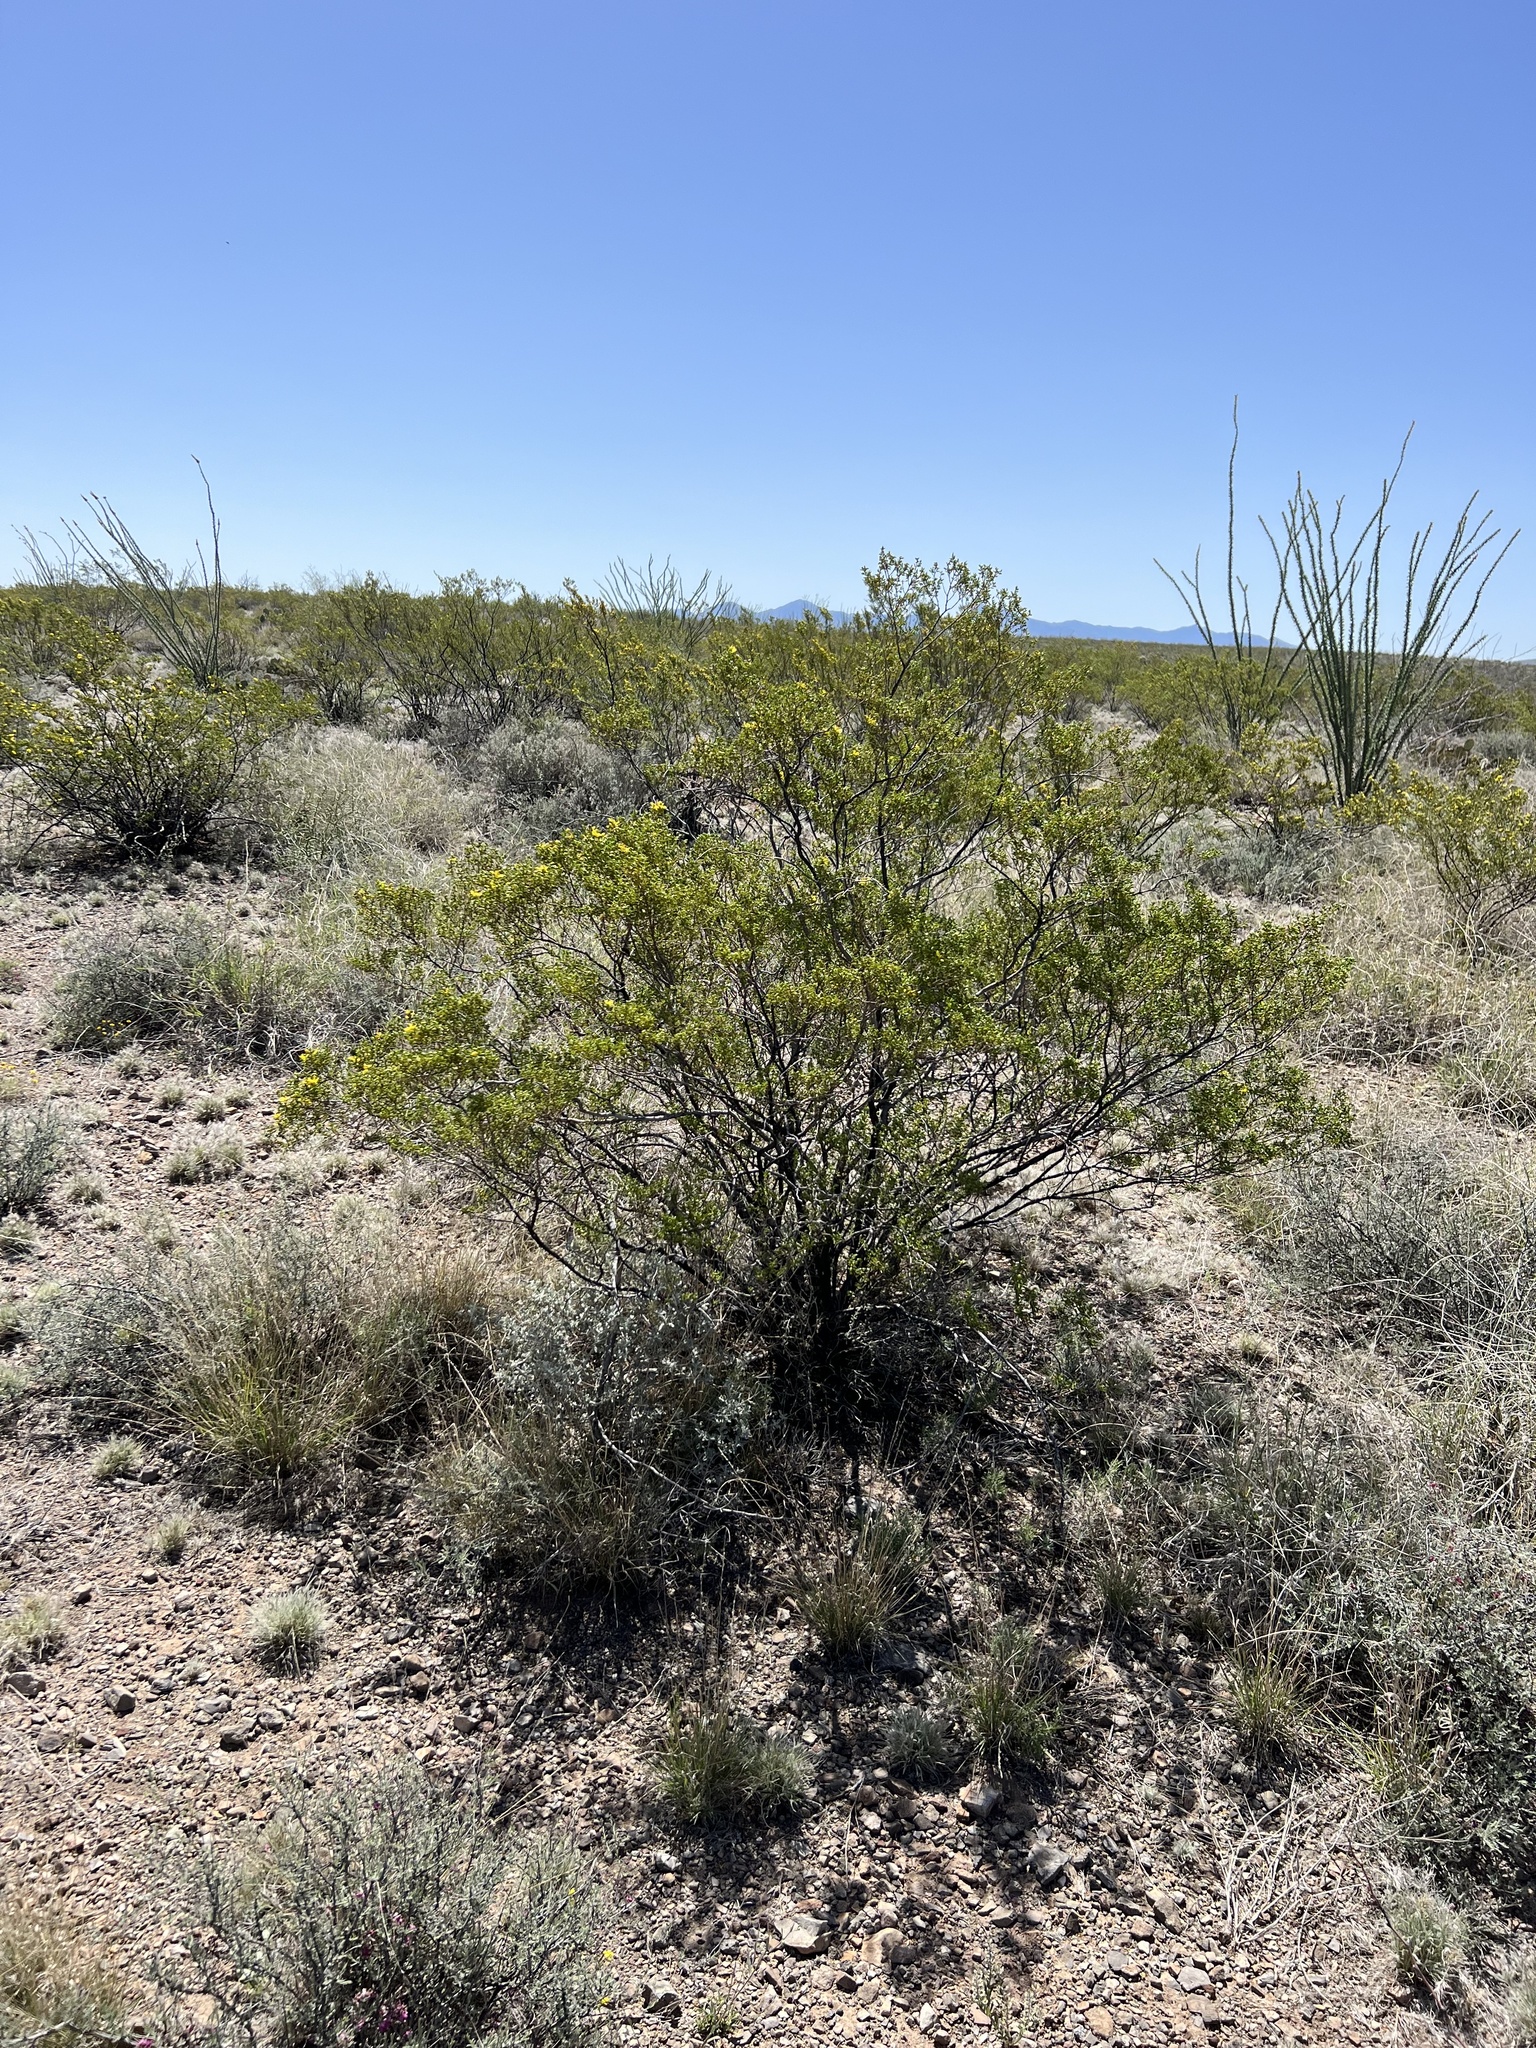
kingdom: Plantae
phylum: Tracheophyta
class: Magnoliopsida
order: Zygophyllales
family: Zygophyllaceae
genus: Larrea
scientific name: Larrea tridentata
